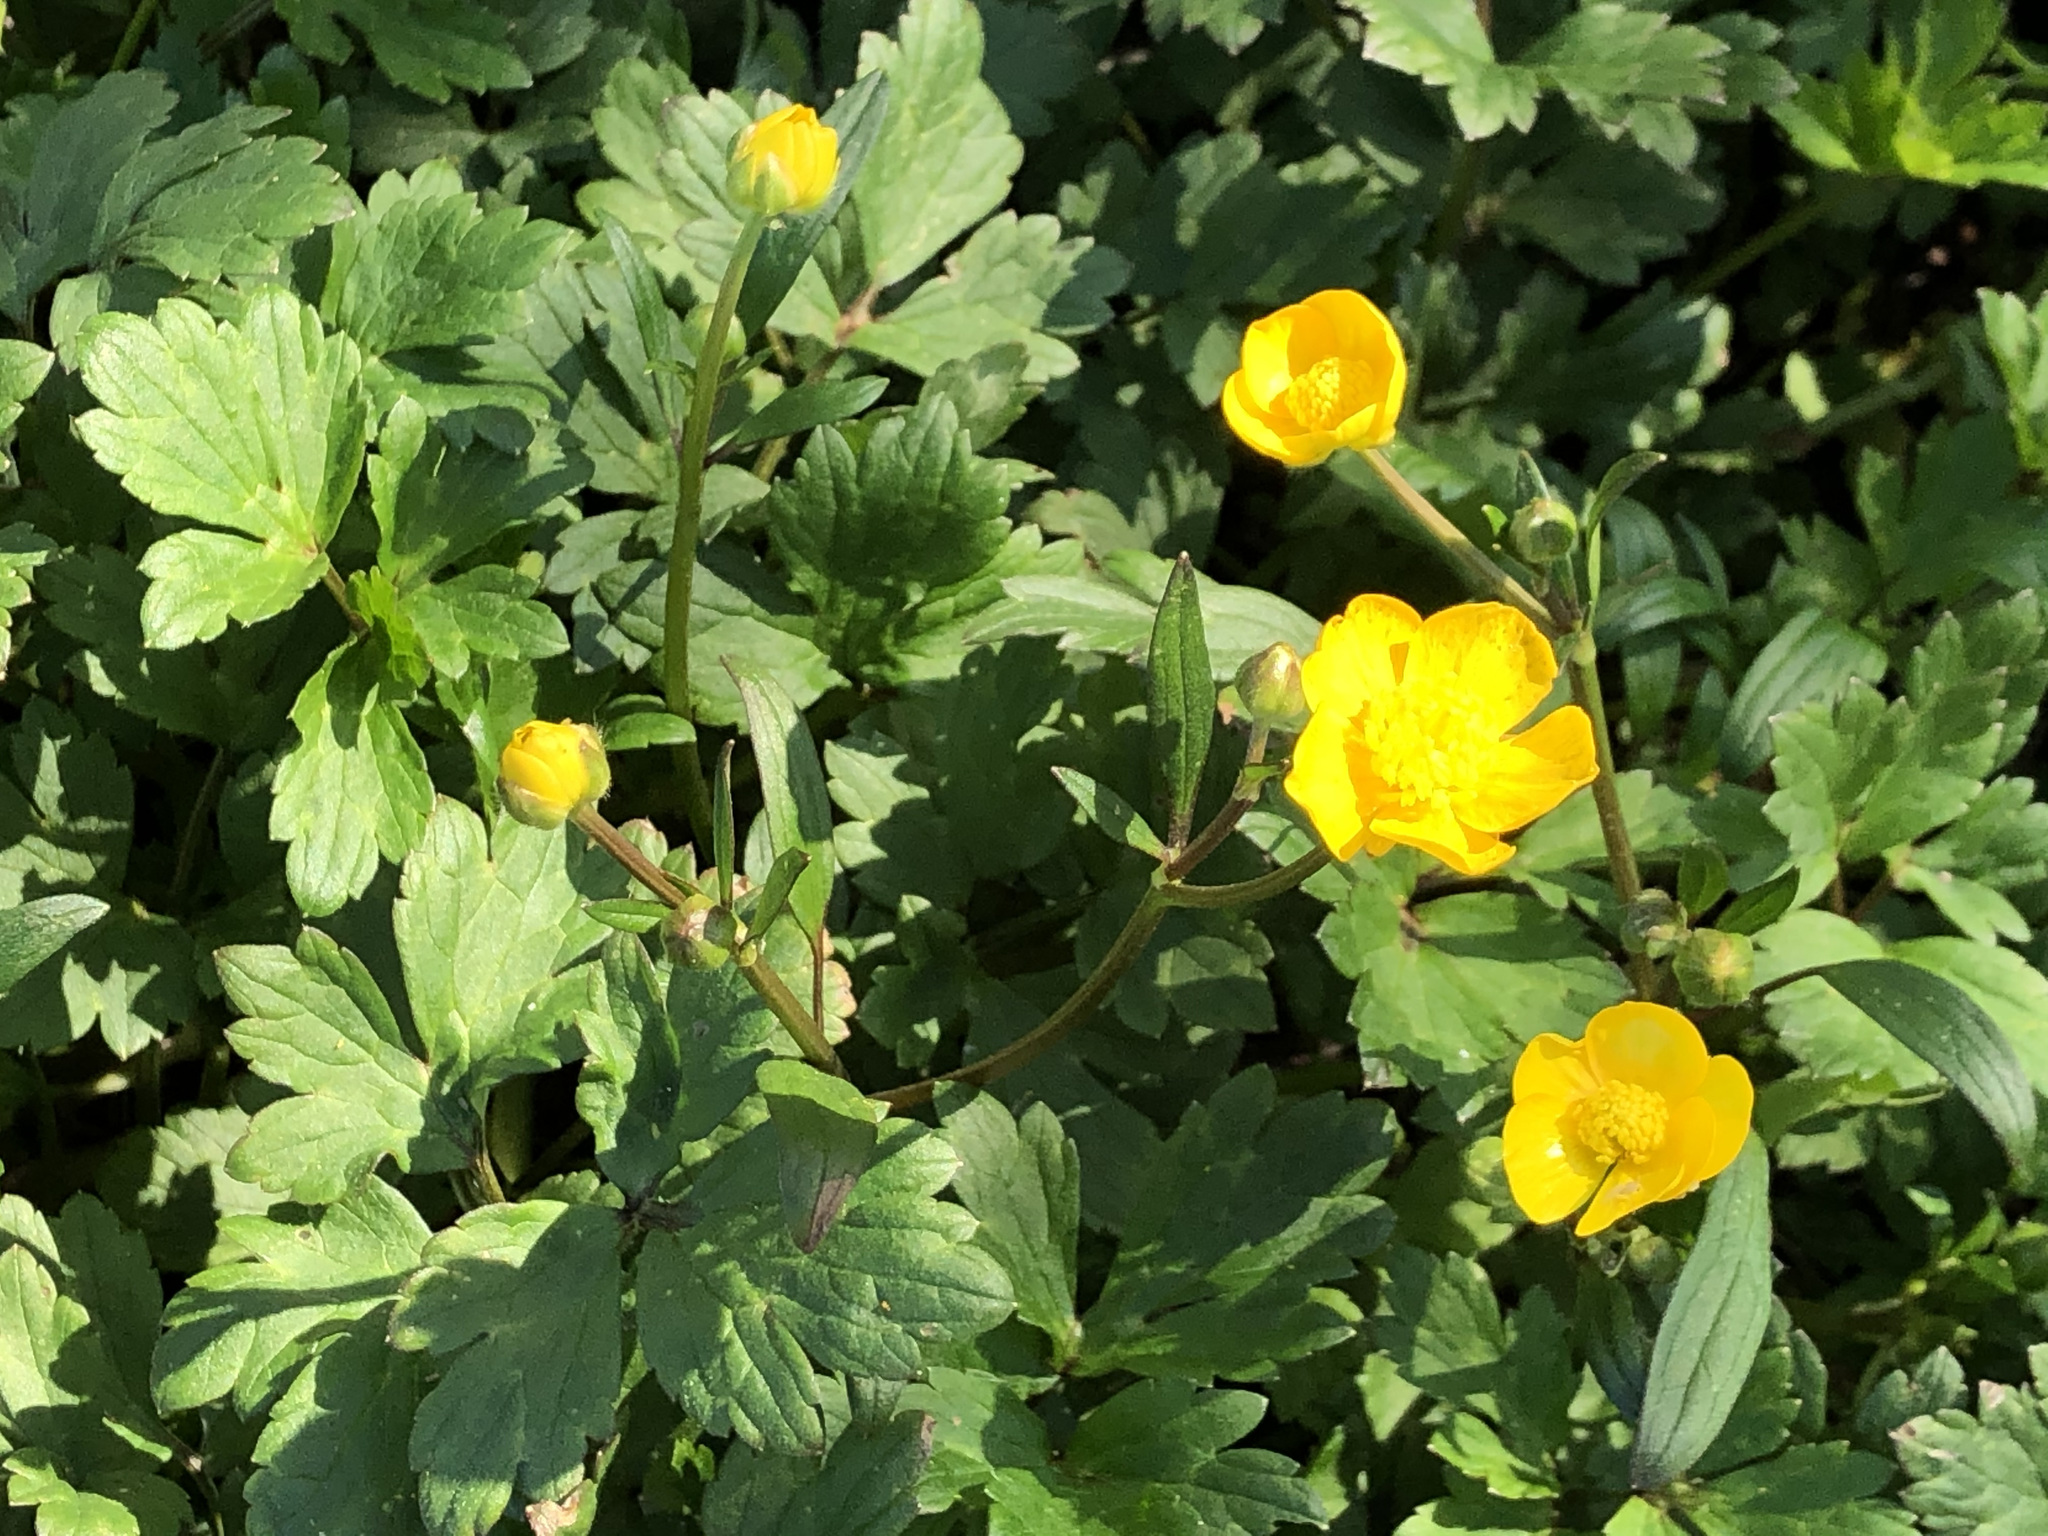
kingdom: Plantae
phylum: Tracheophyta
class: Magnoliopsida
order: Ranunculales
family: Ranunculaceae
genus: Ranunculus
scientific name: Ranunculus repens
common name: Creeping buttercup
